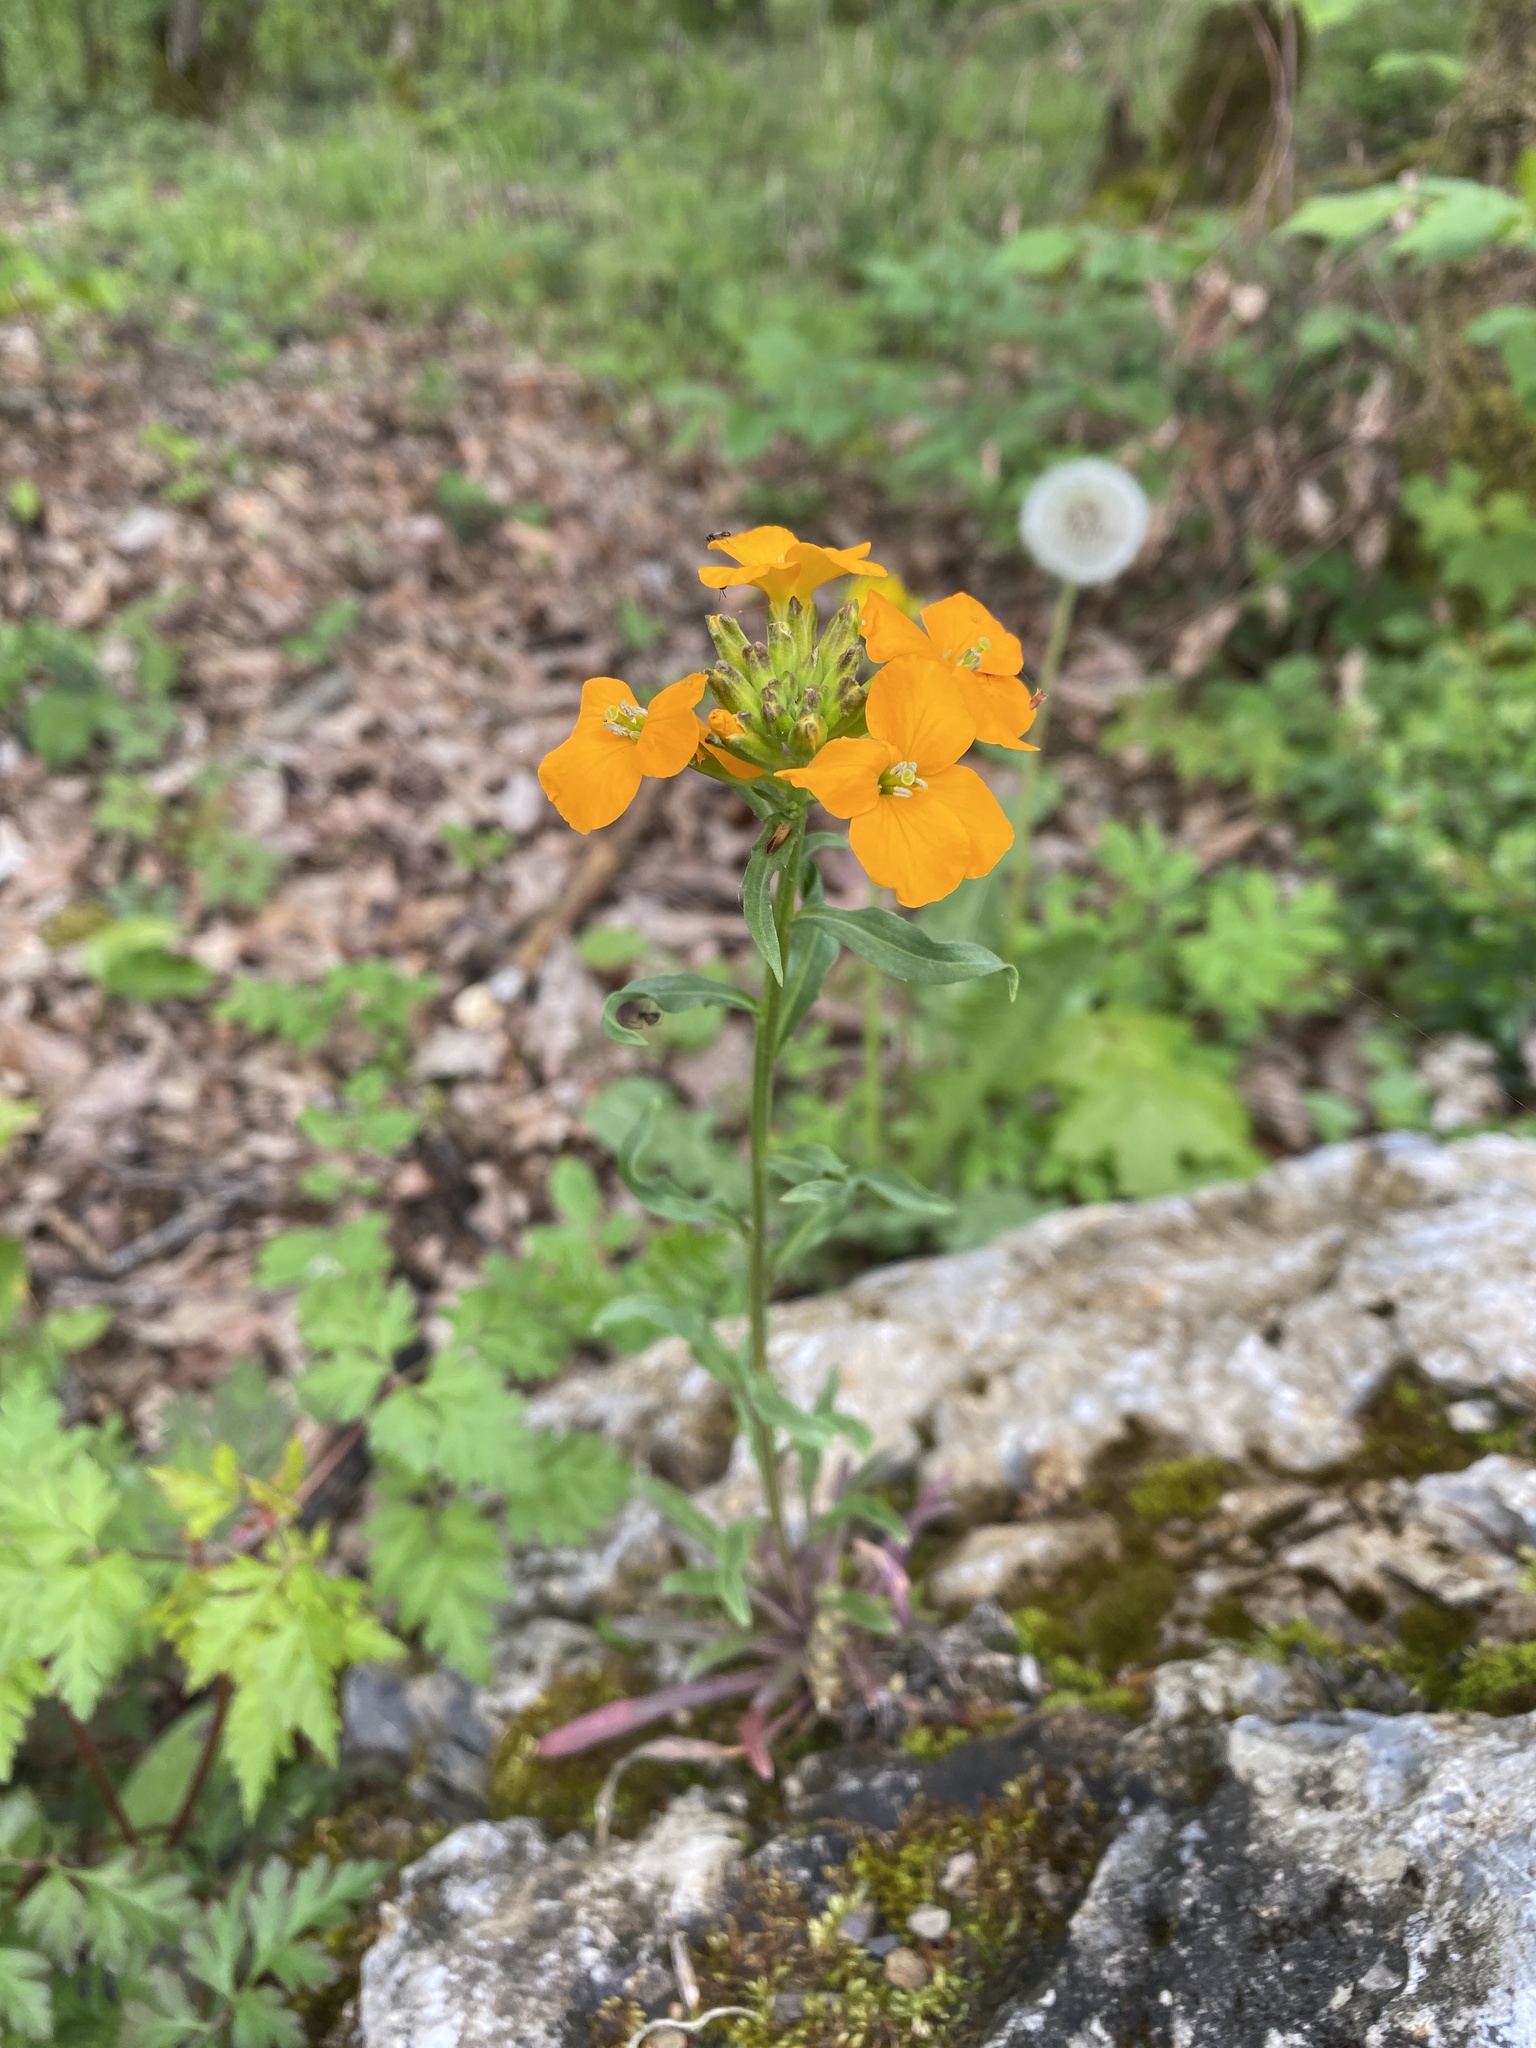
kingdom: Plantae
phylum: Tracheophyta
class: Magnoliopsida
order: Brassicales
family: Brassicaceae
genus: Erysimum
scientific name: Erysimum cheiri
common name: Wallflower
